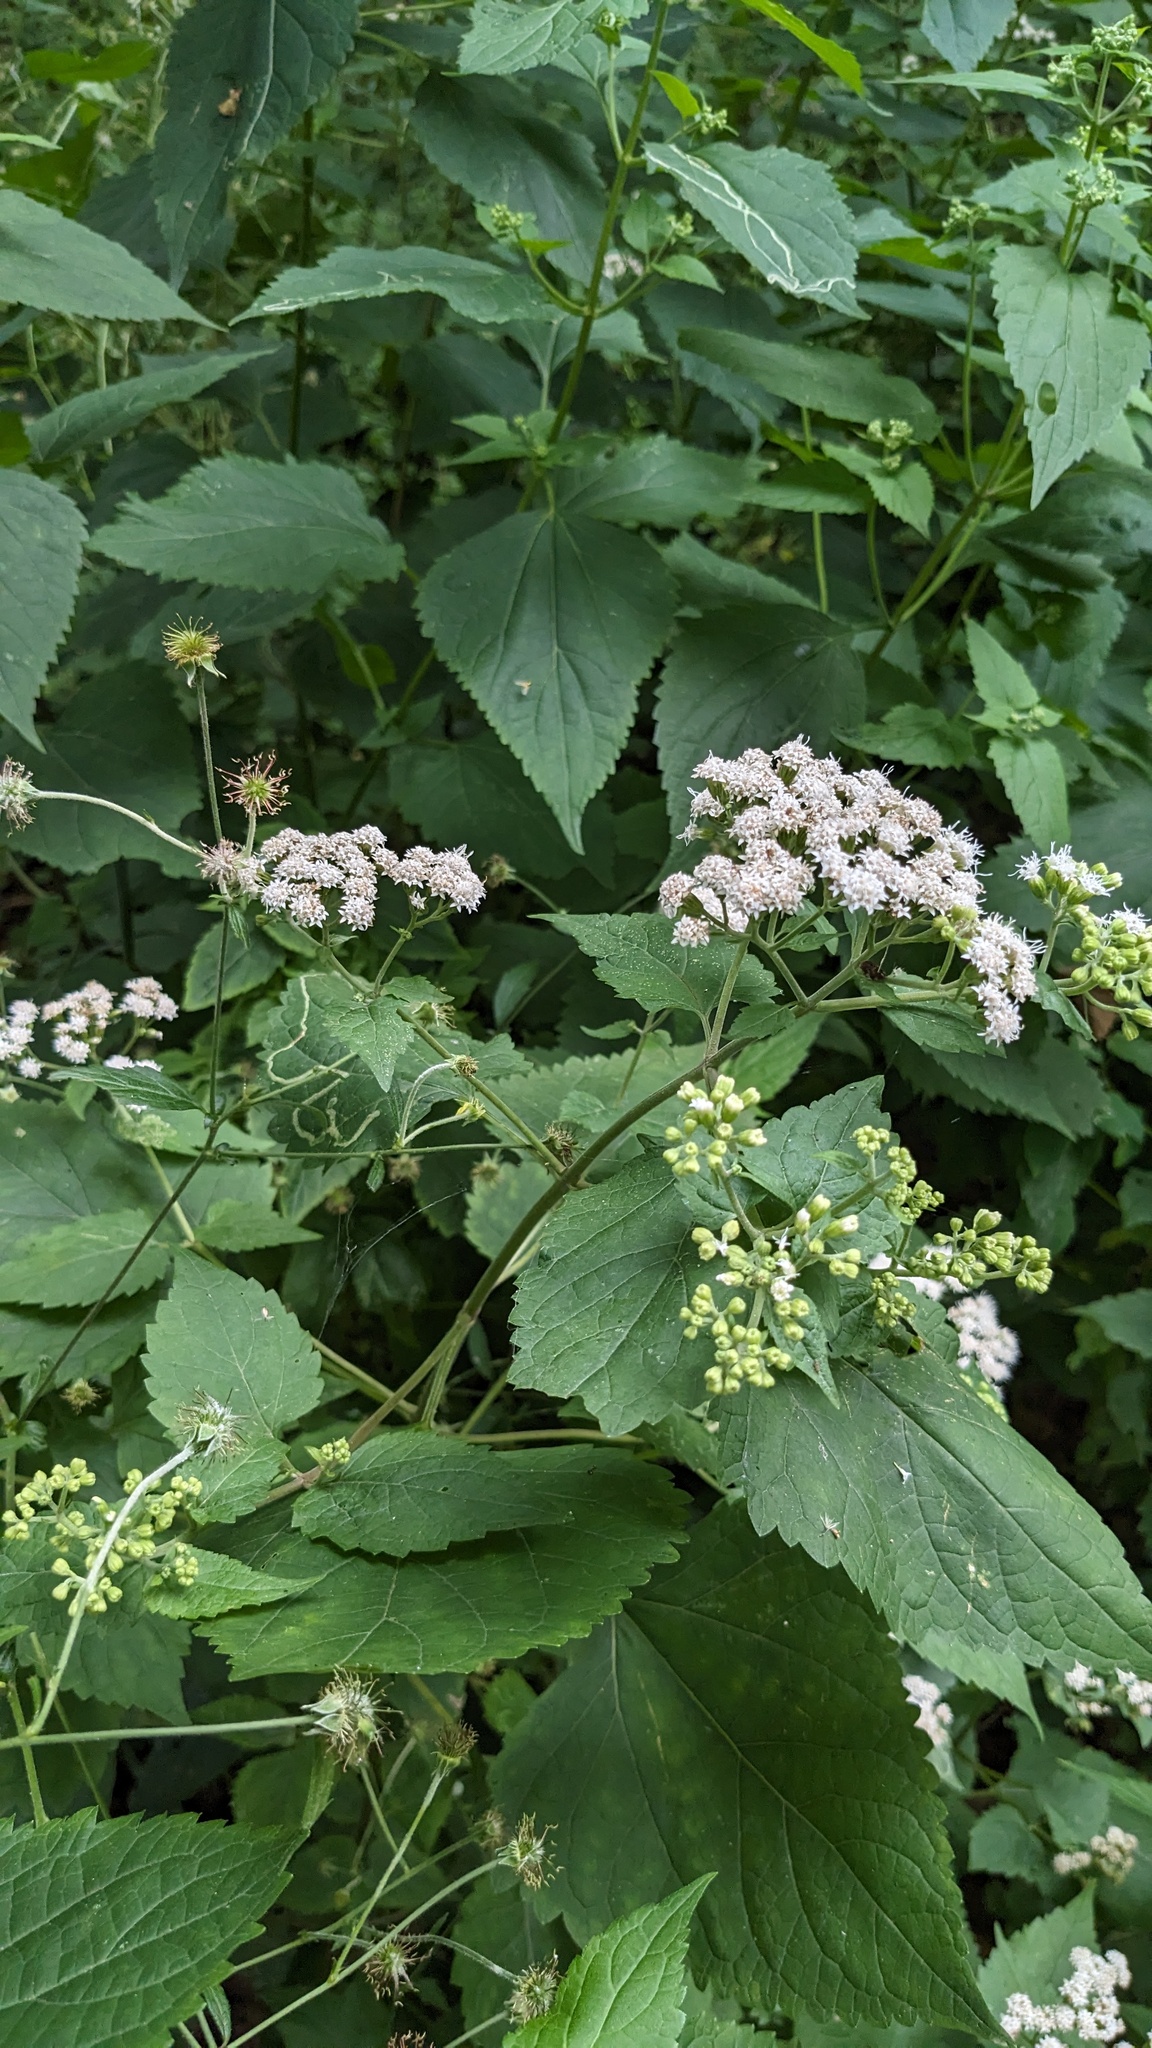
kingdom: Plantae
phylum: Tracheophyta
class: Magnoliopsida
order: Asterales
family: Asteraceae
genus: Ageratina
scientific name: Ageratina altissima
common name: White snakeroot
